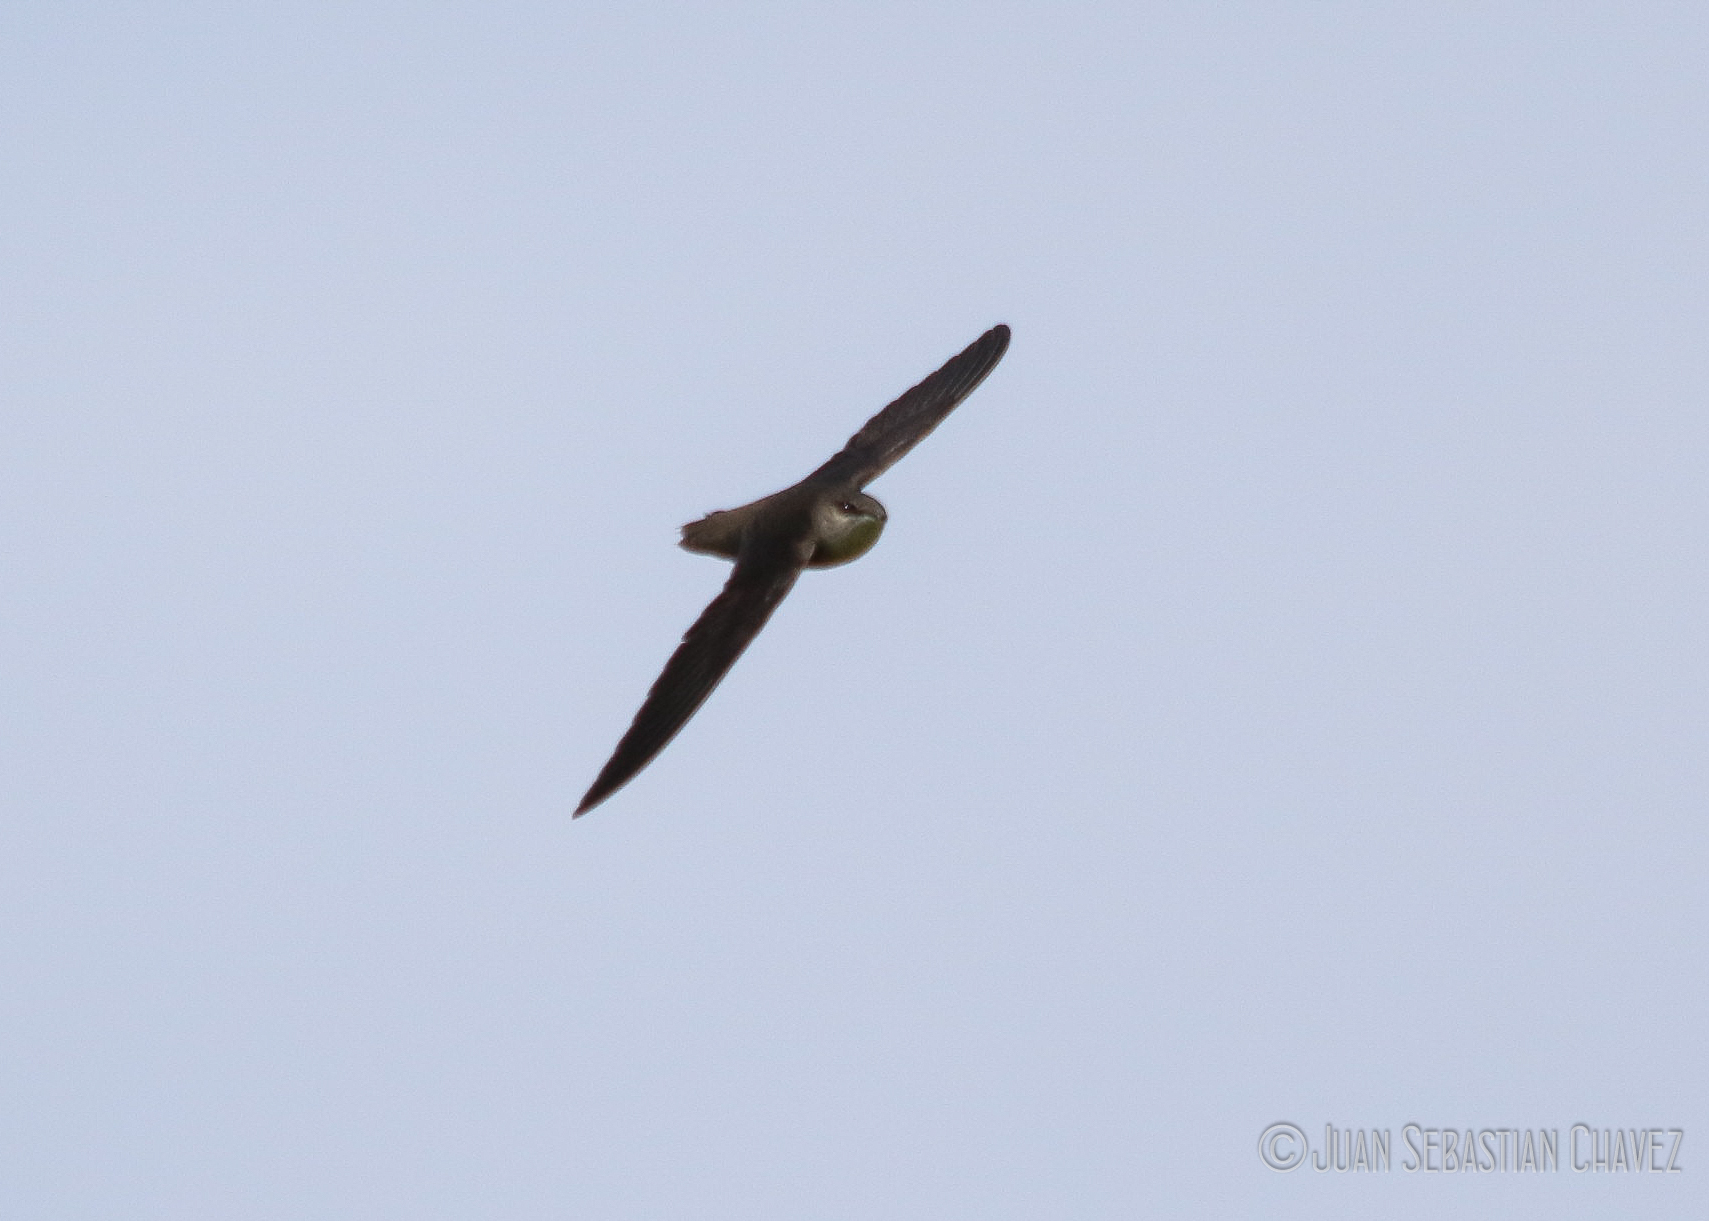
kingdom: Animalia
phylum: Chordata
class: Aves
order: Apodiformes
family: Apodidae
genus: Chaetura
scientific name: Chaetura pelagica
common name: Chimney swift
